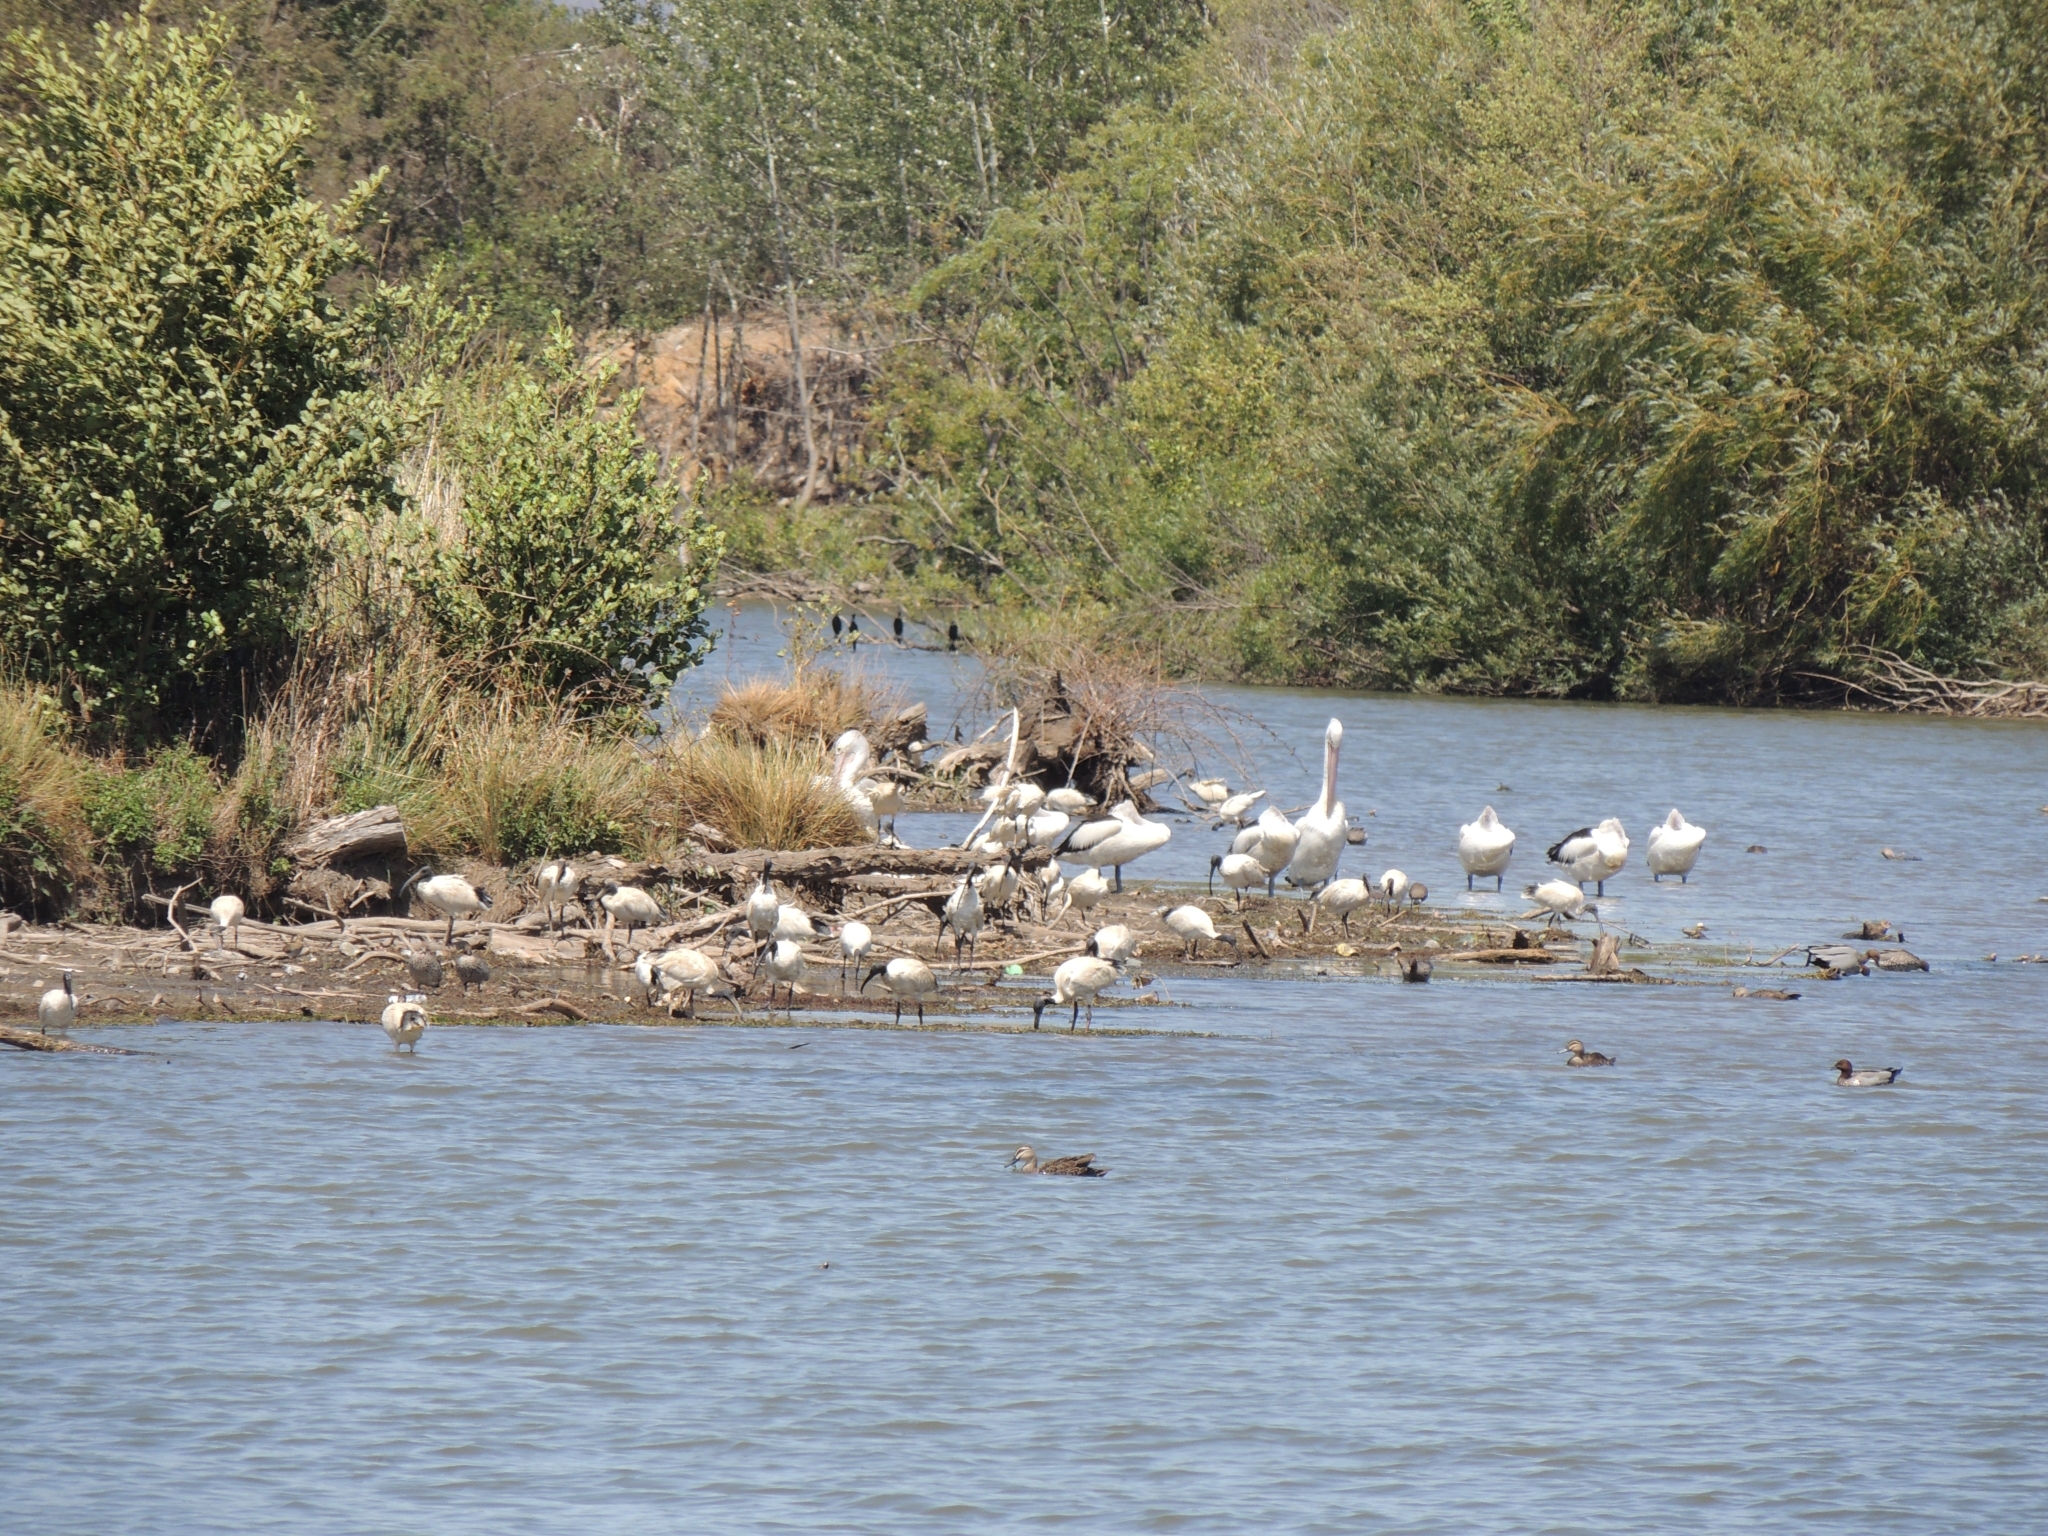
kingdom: Animalia
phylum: Chordata
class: Aves
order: Pelecaniformes
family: Threskiornithidae
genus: Threskiornis
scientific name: Threskiornis molucca
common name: Australian white ibis
